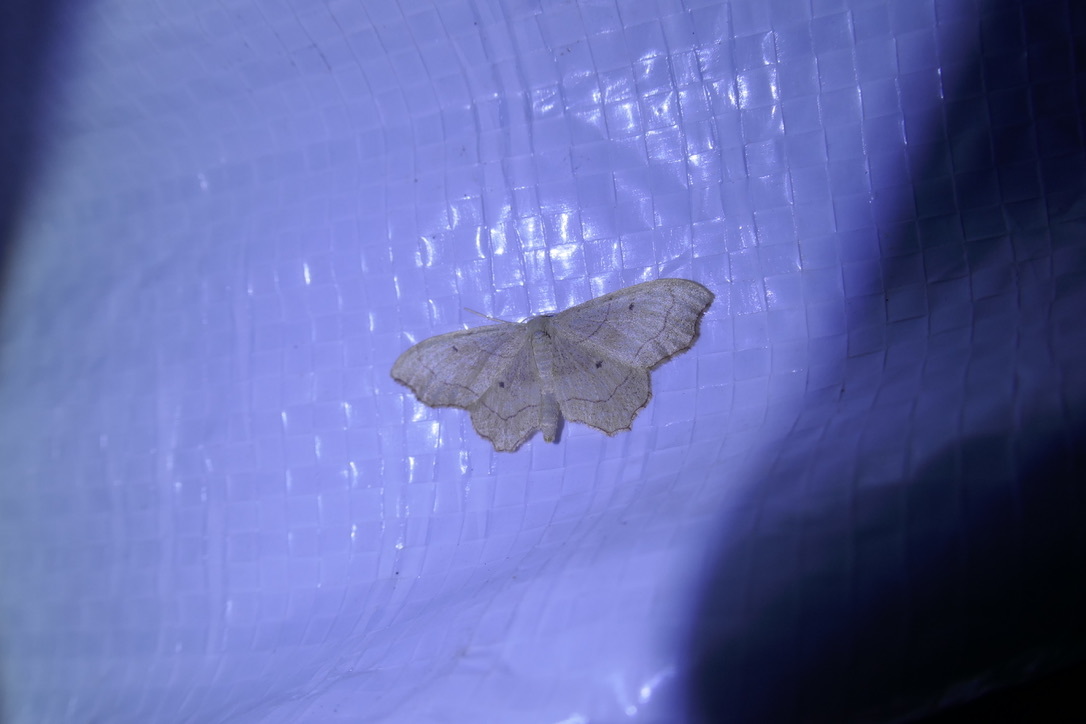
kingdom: Animalia
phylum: Arthropoda
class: Insecta
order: Lepidoptera
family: Geometridae
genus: Idaea
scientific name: Idaea emarginata
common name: Small scallop
